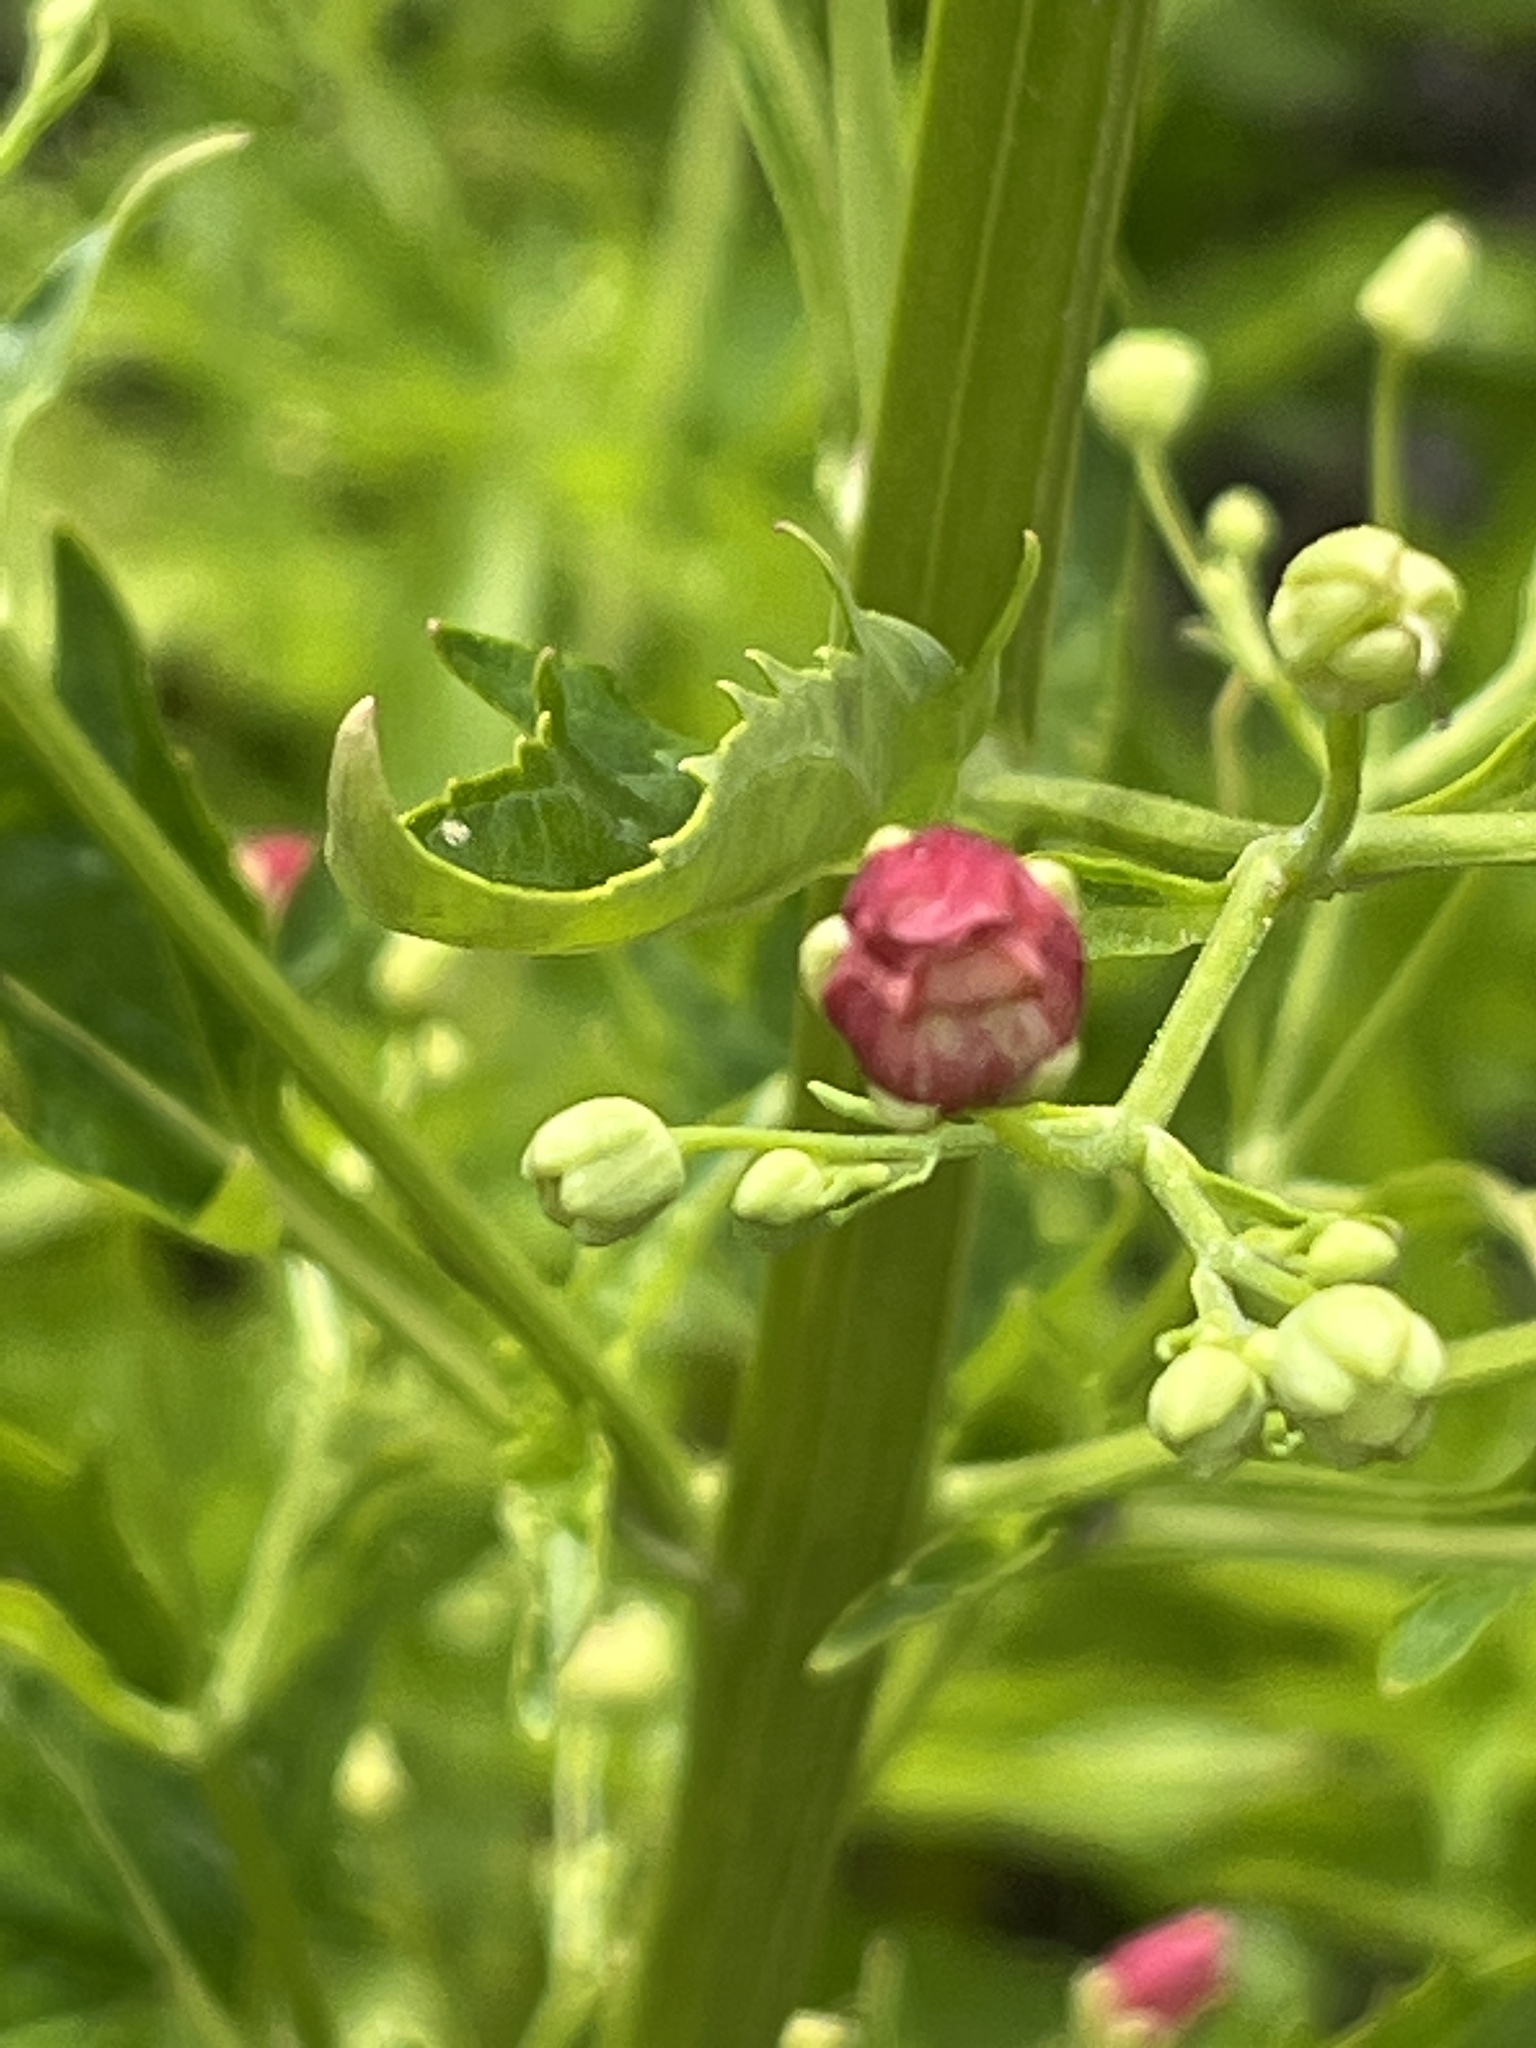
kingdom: Plantae
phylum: Tracheophyta
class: Magnoliopsida
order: Lamiales
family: Scrophulariaceae
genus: Scrophularia
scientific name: Scrophularia californica
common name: California figwort
